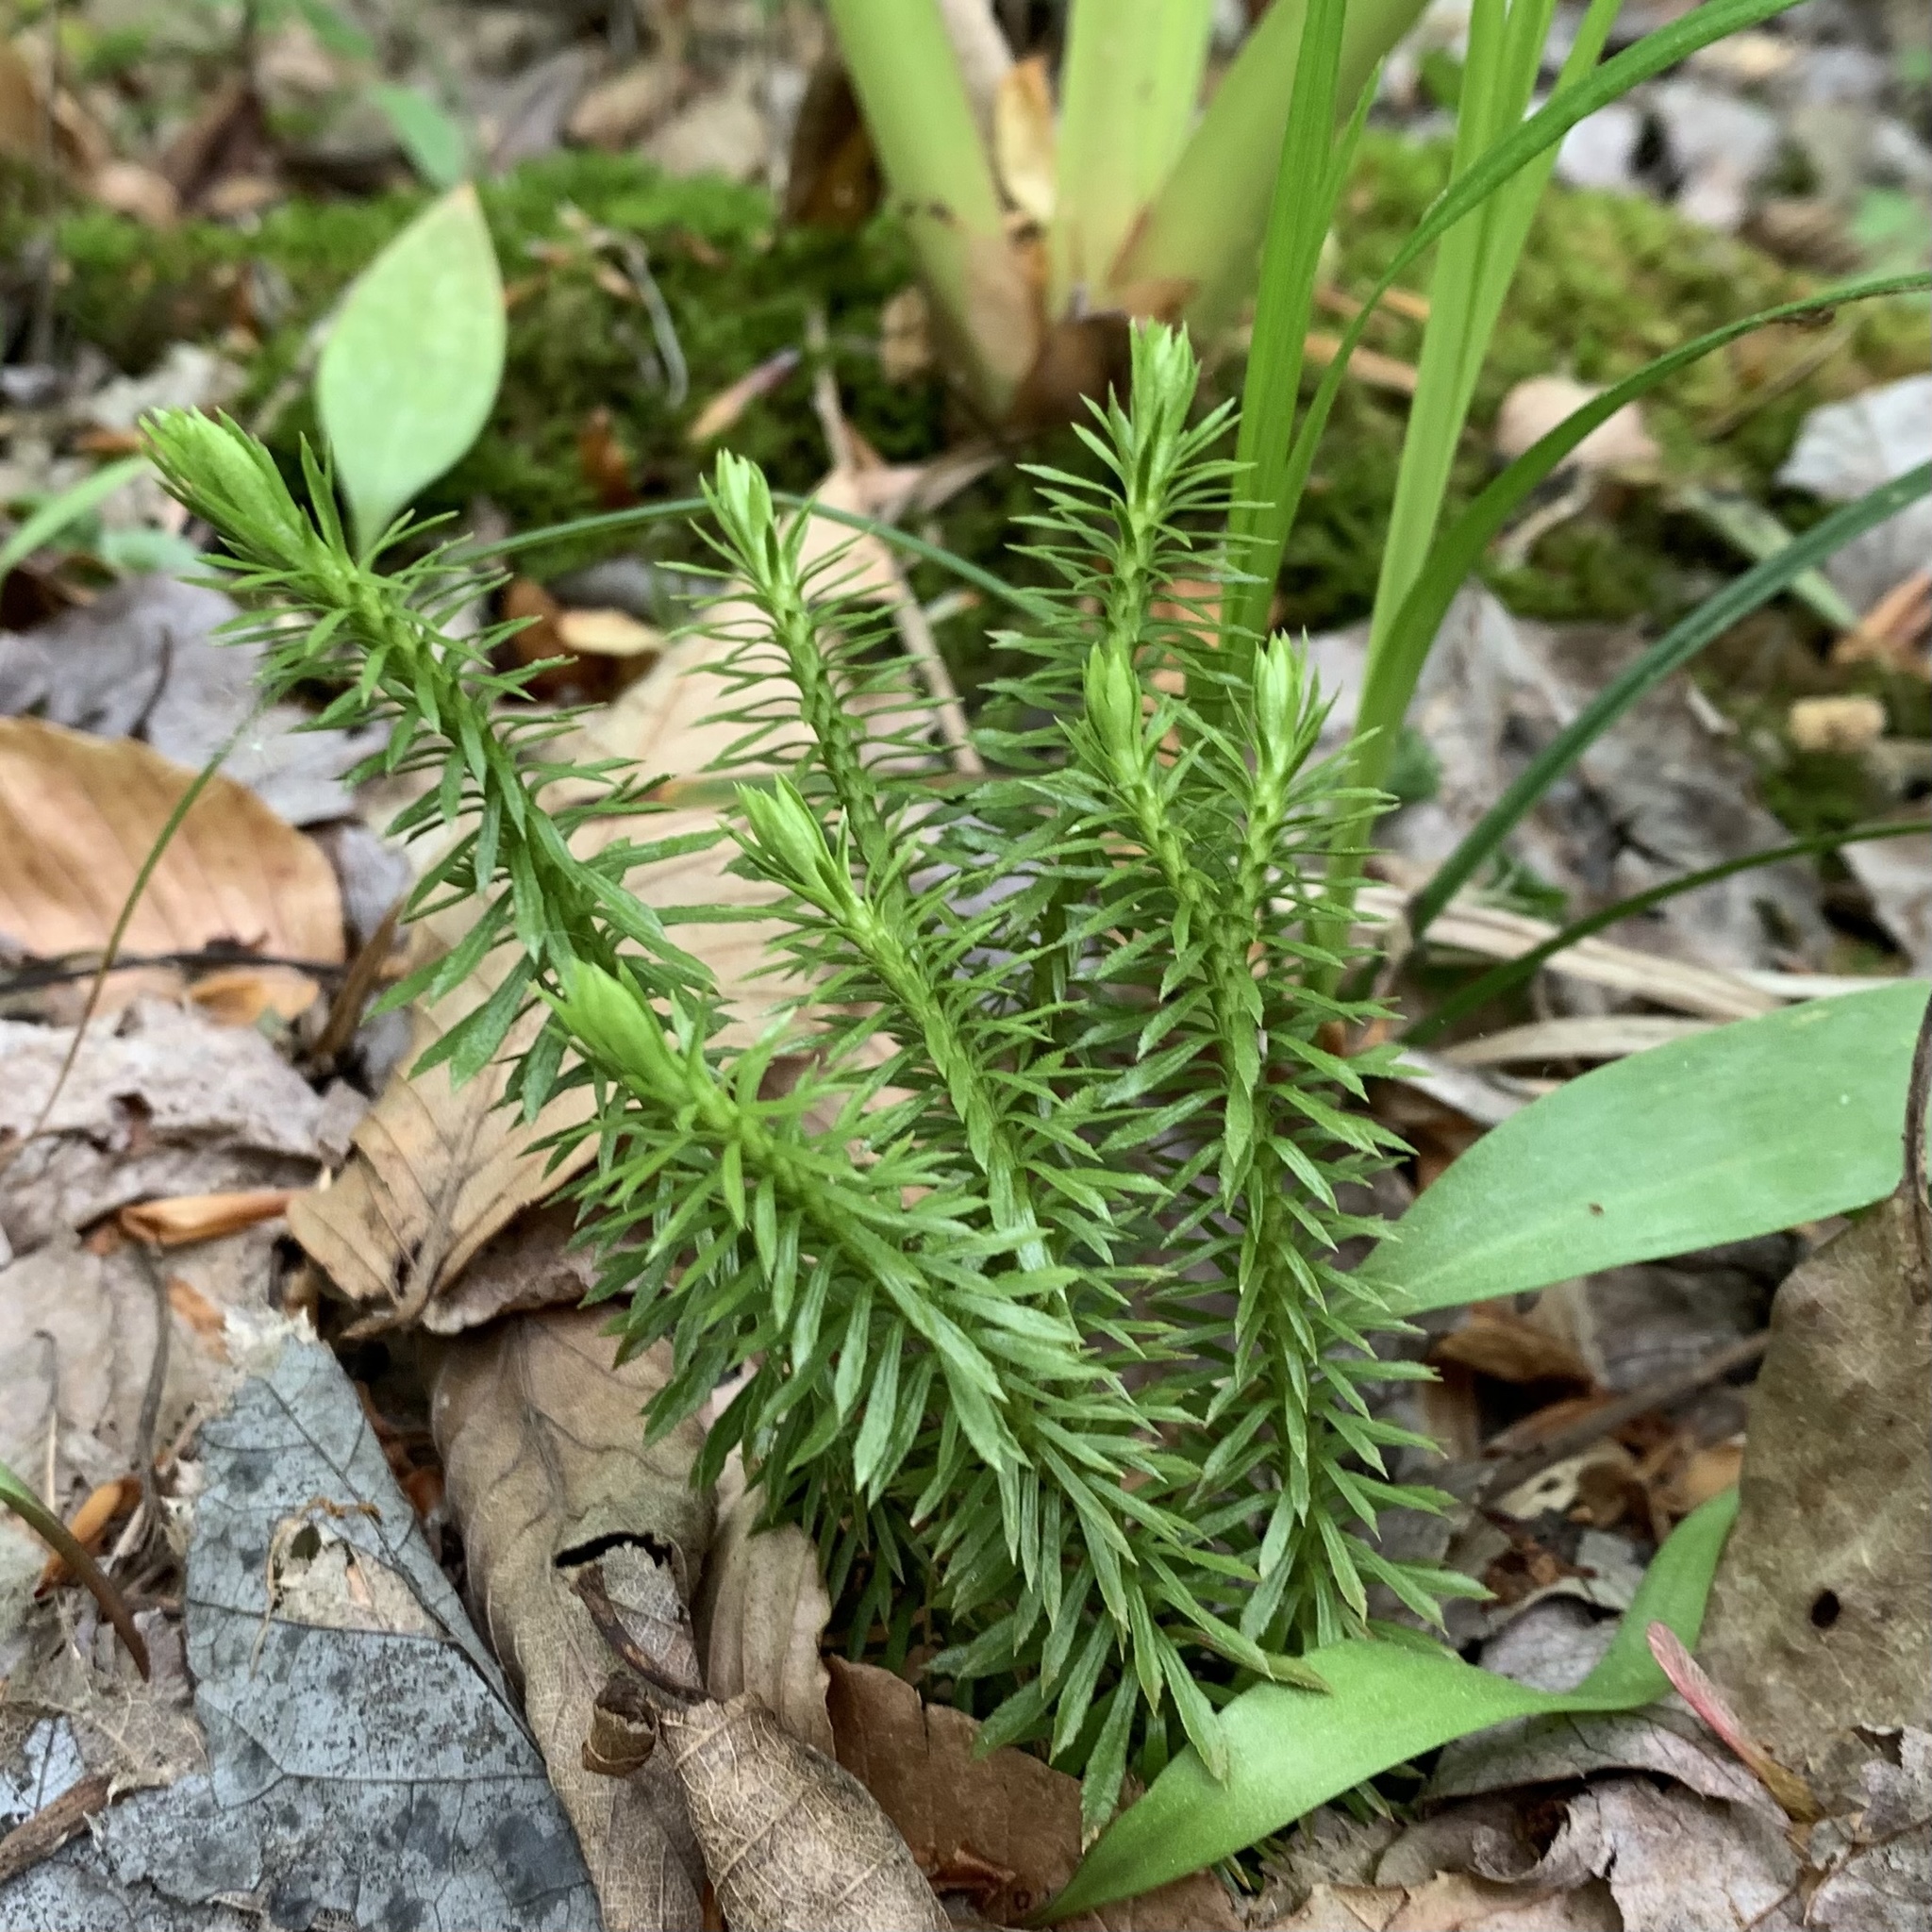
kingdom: Plantae
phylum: Tracheophyta
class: Lycopodiopsida
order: Lycopodiales
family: Lycopodiaceae
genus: Huperzia
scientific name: Huperzia lucidula
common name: Shining clubmoss
